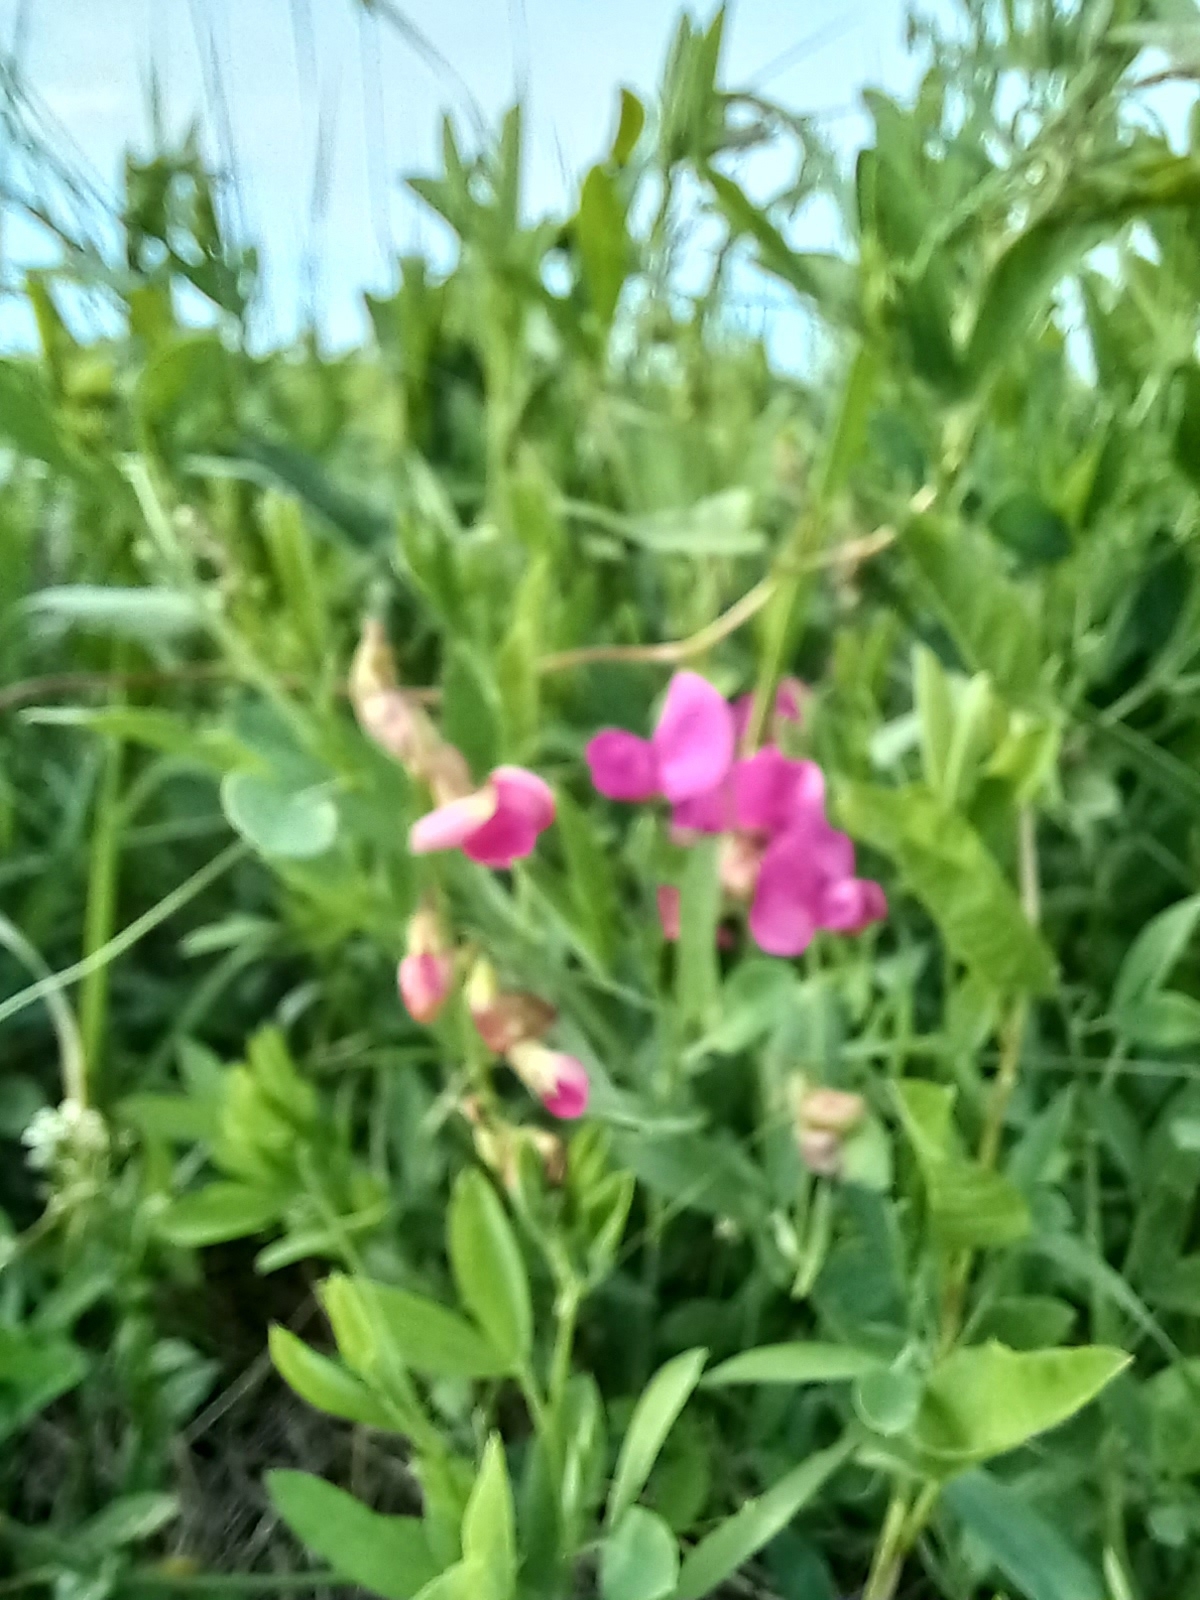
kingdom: Plantae
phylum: Tracheophyta
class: Magnoliopsida
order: Fabales
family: Fabaceae
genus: Lathyrus
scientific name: Lathyrus tuberosus
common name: Tuberous pea
